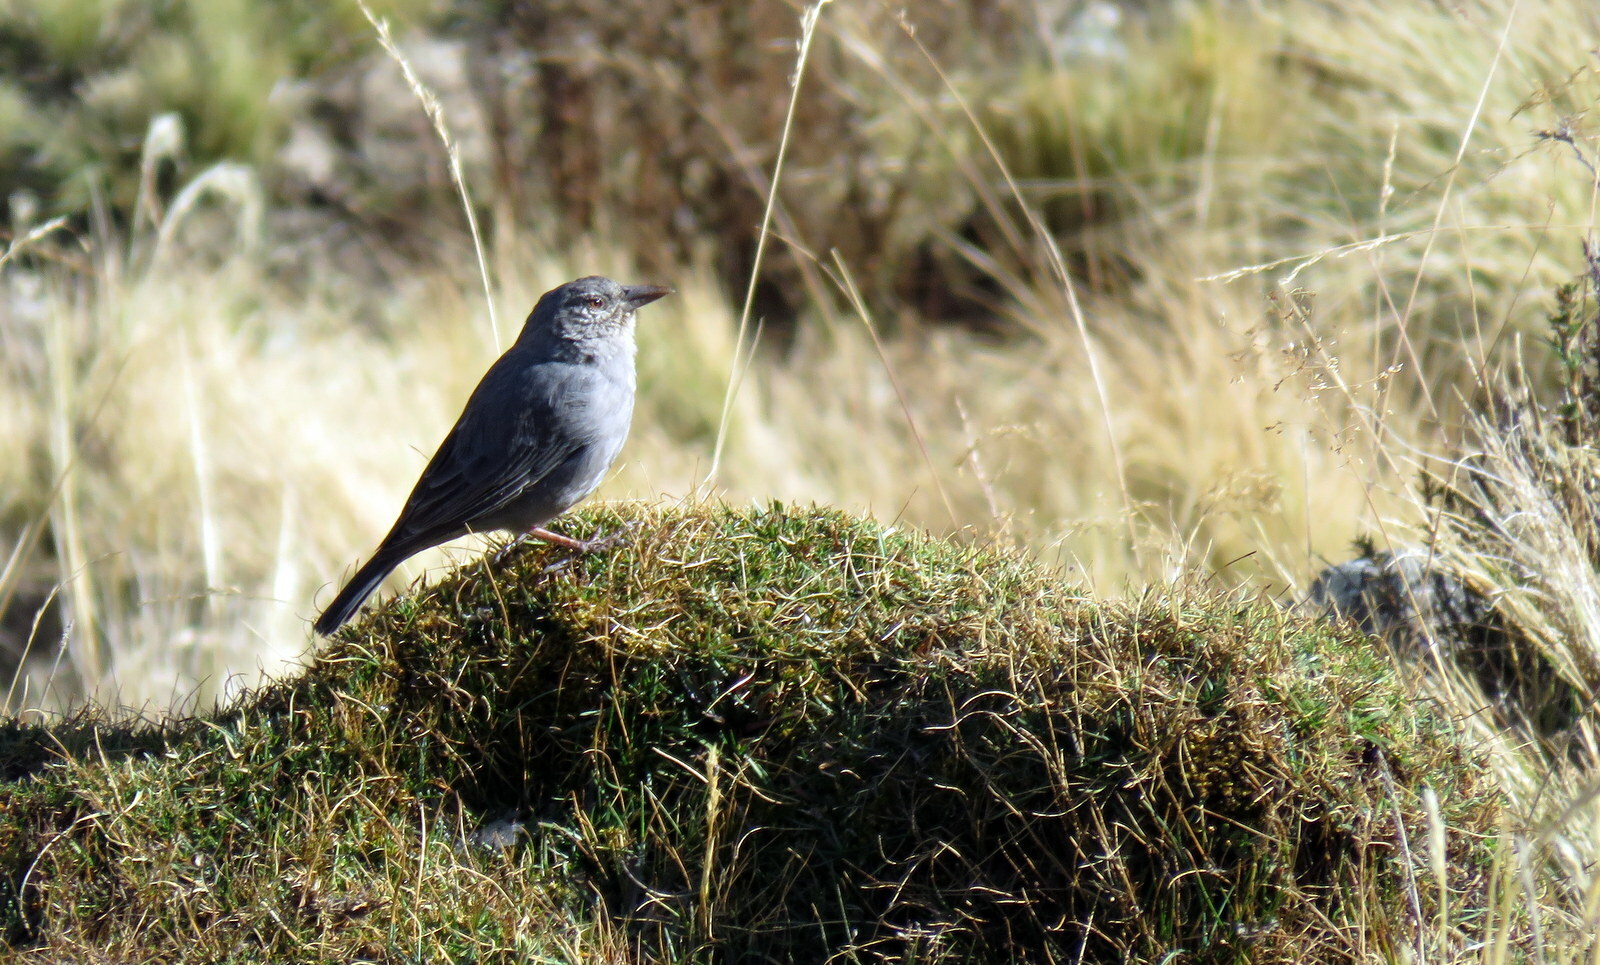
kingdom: Animalia
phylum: Chordata
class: Aves
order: Passeriformes
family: Thraupidae
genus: Idiopsar
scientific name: Idiopsar brachyurus
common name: Short-tailed finch
